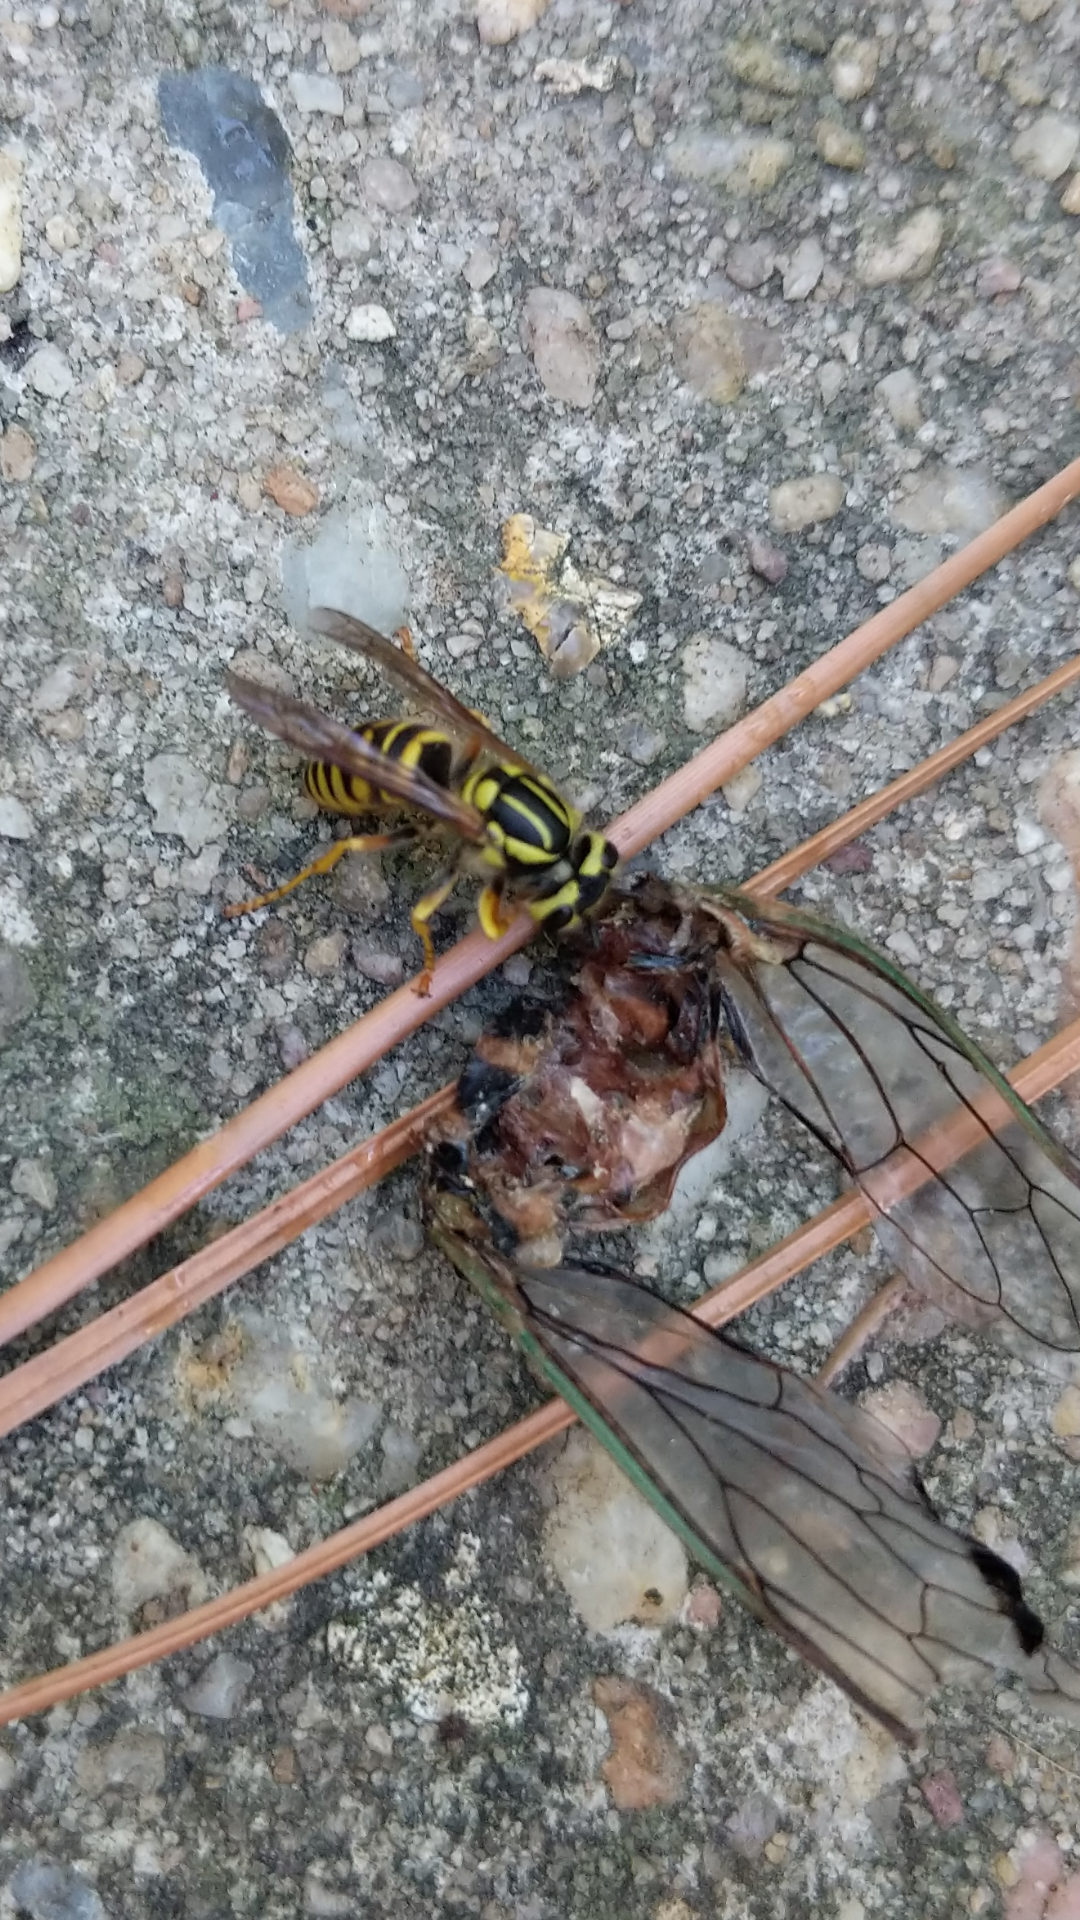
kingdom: Animalia
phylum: Arthropoda
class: Insecta
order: Hymenoptera
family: Vespidae
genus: Vespula
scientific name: Vespula squamosa
